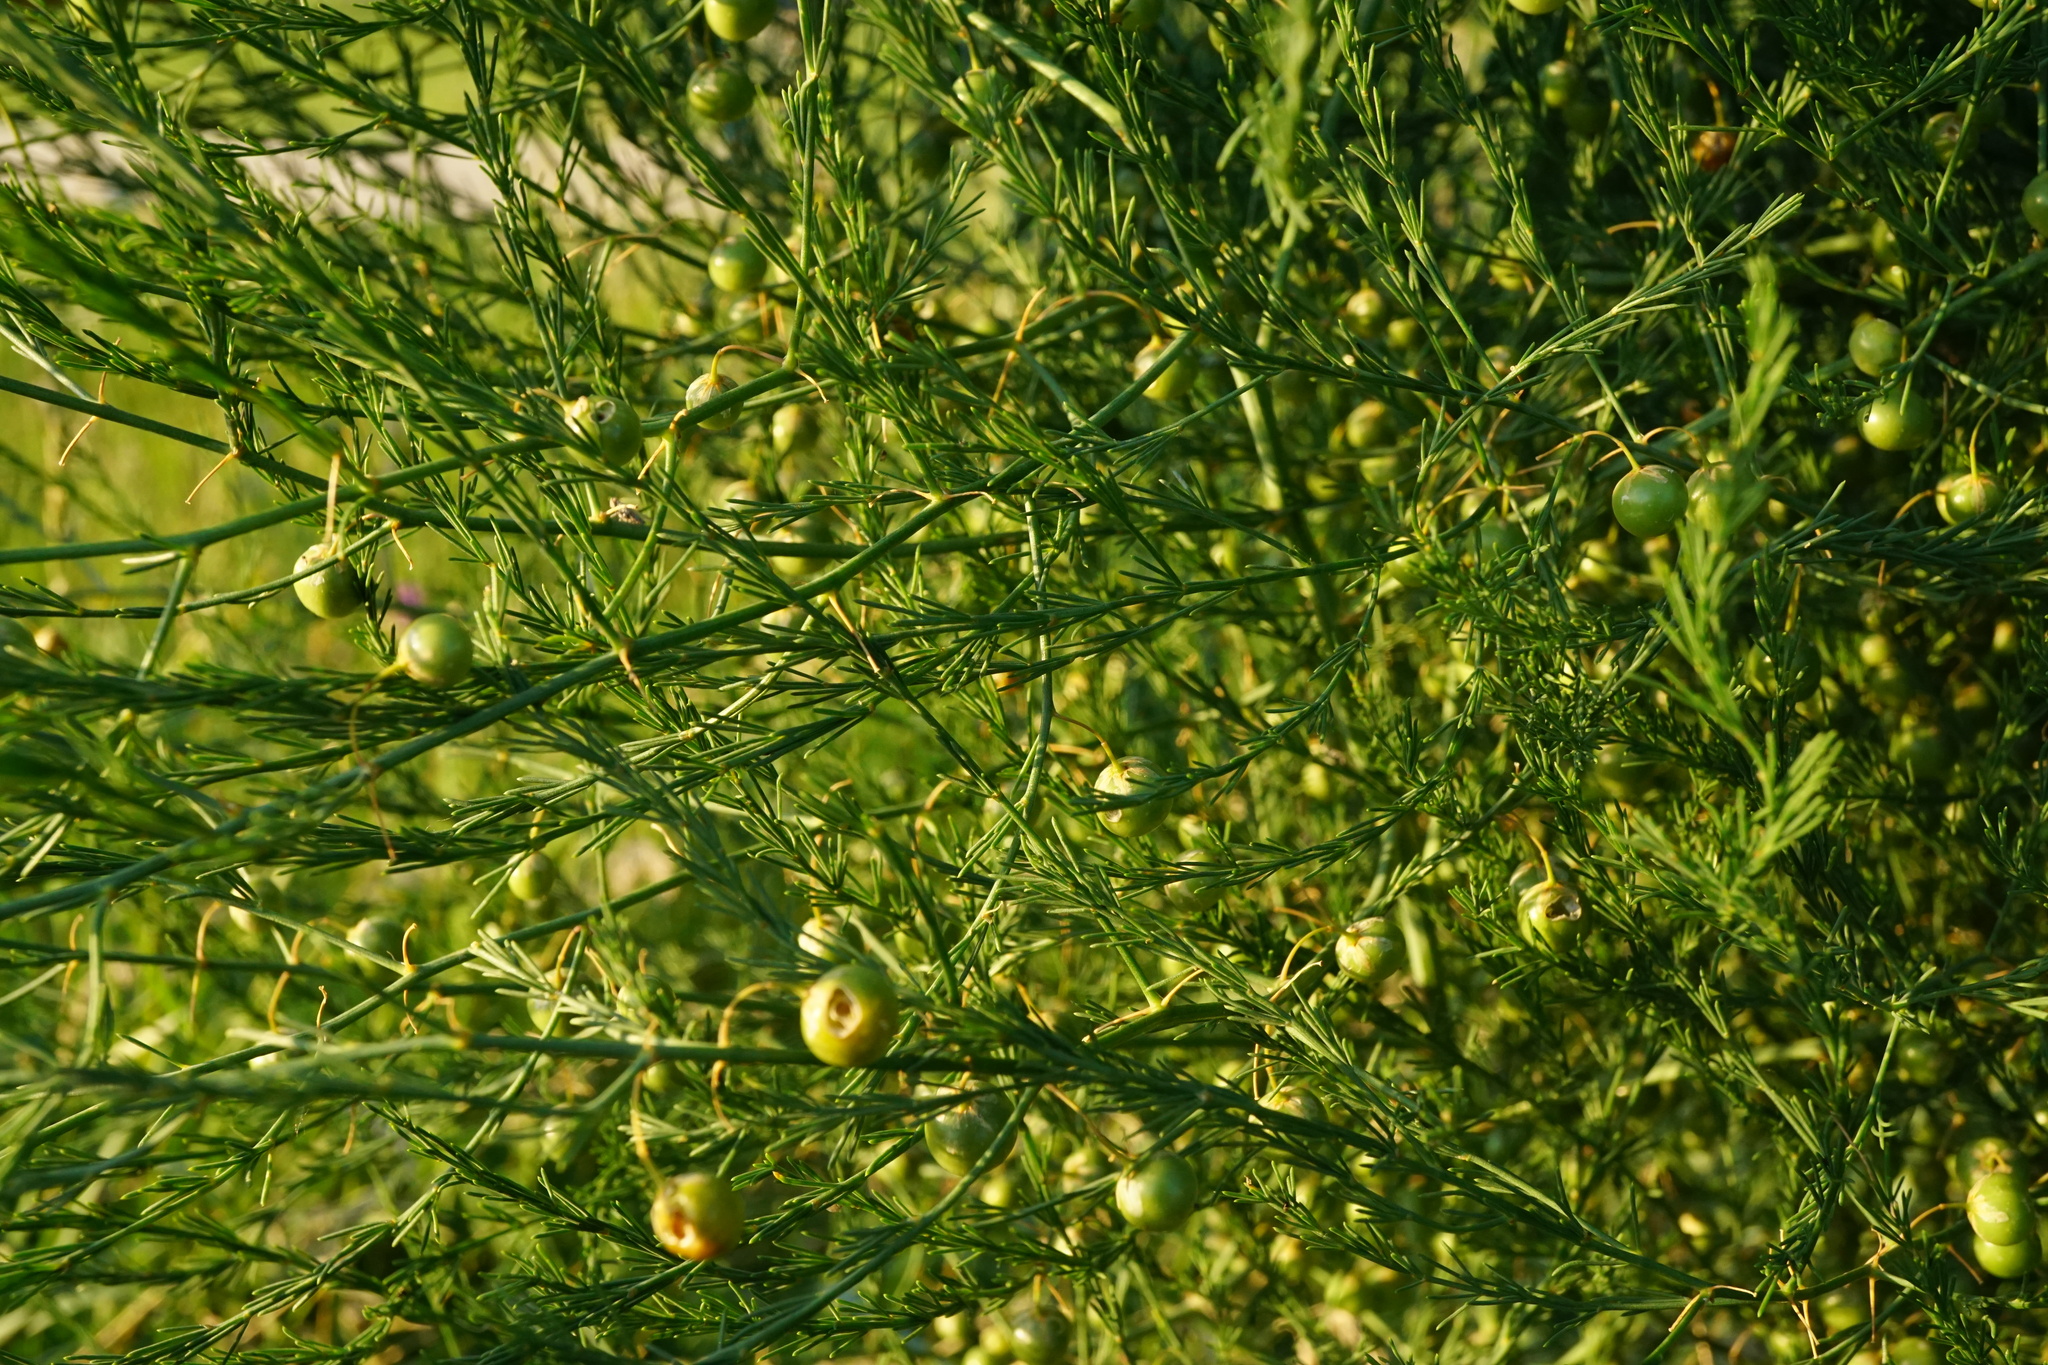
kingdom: Plantae
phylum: Tracheophyta
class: Liliopsida
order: Asparagales
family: Asparagaceae
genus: Asparagus
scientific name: Asparagus officinalis
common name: Garden asparagus
